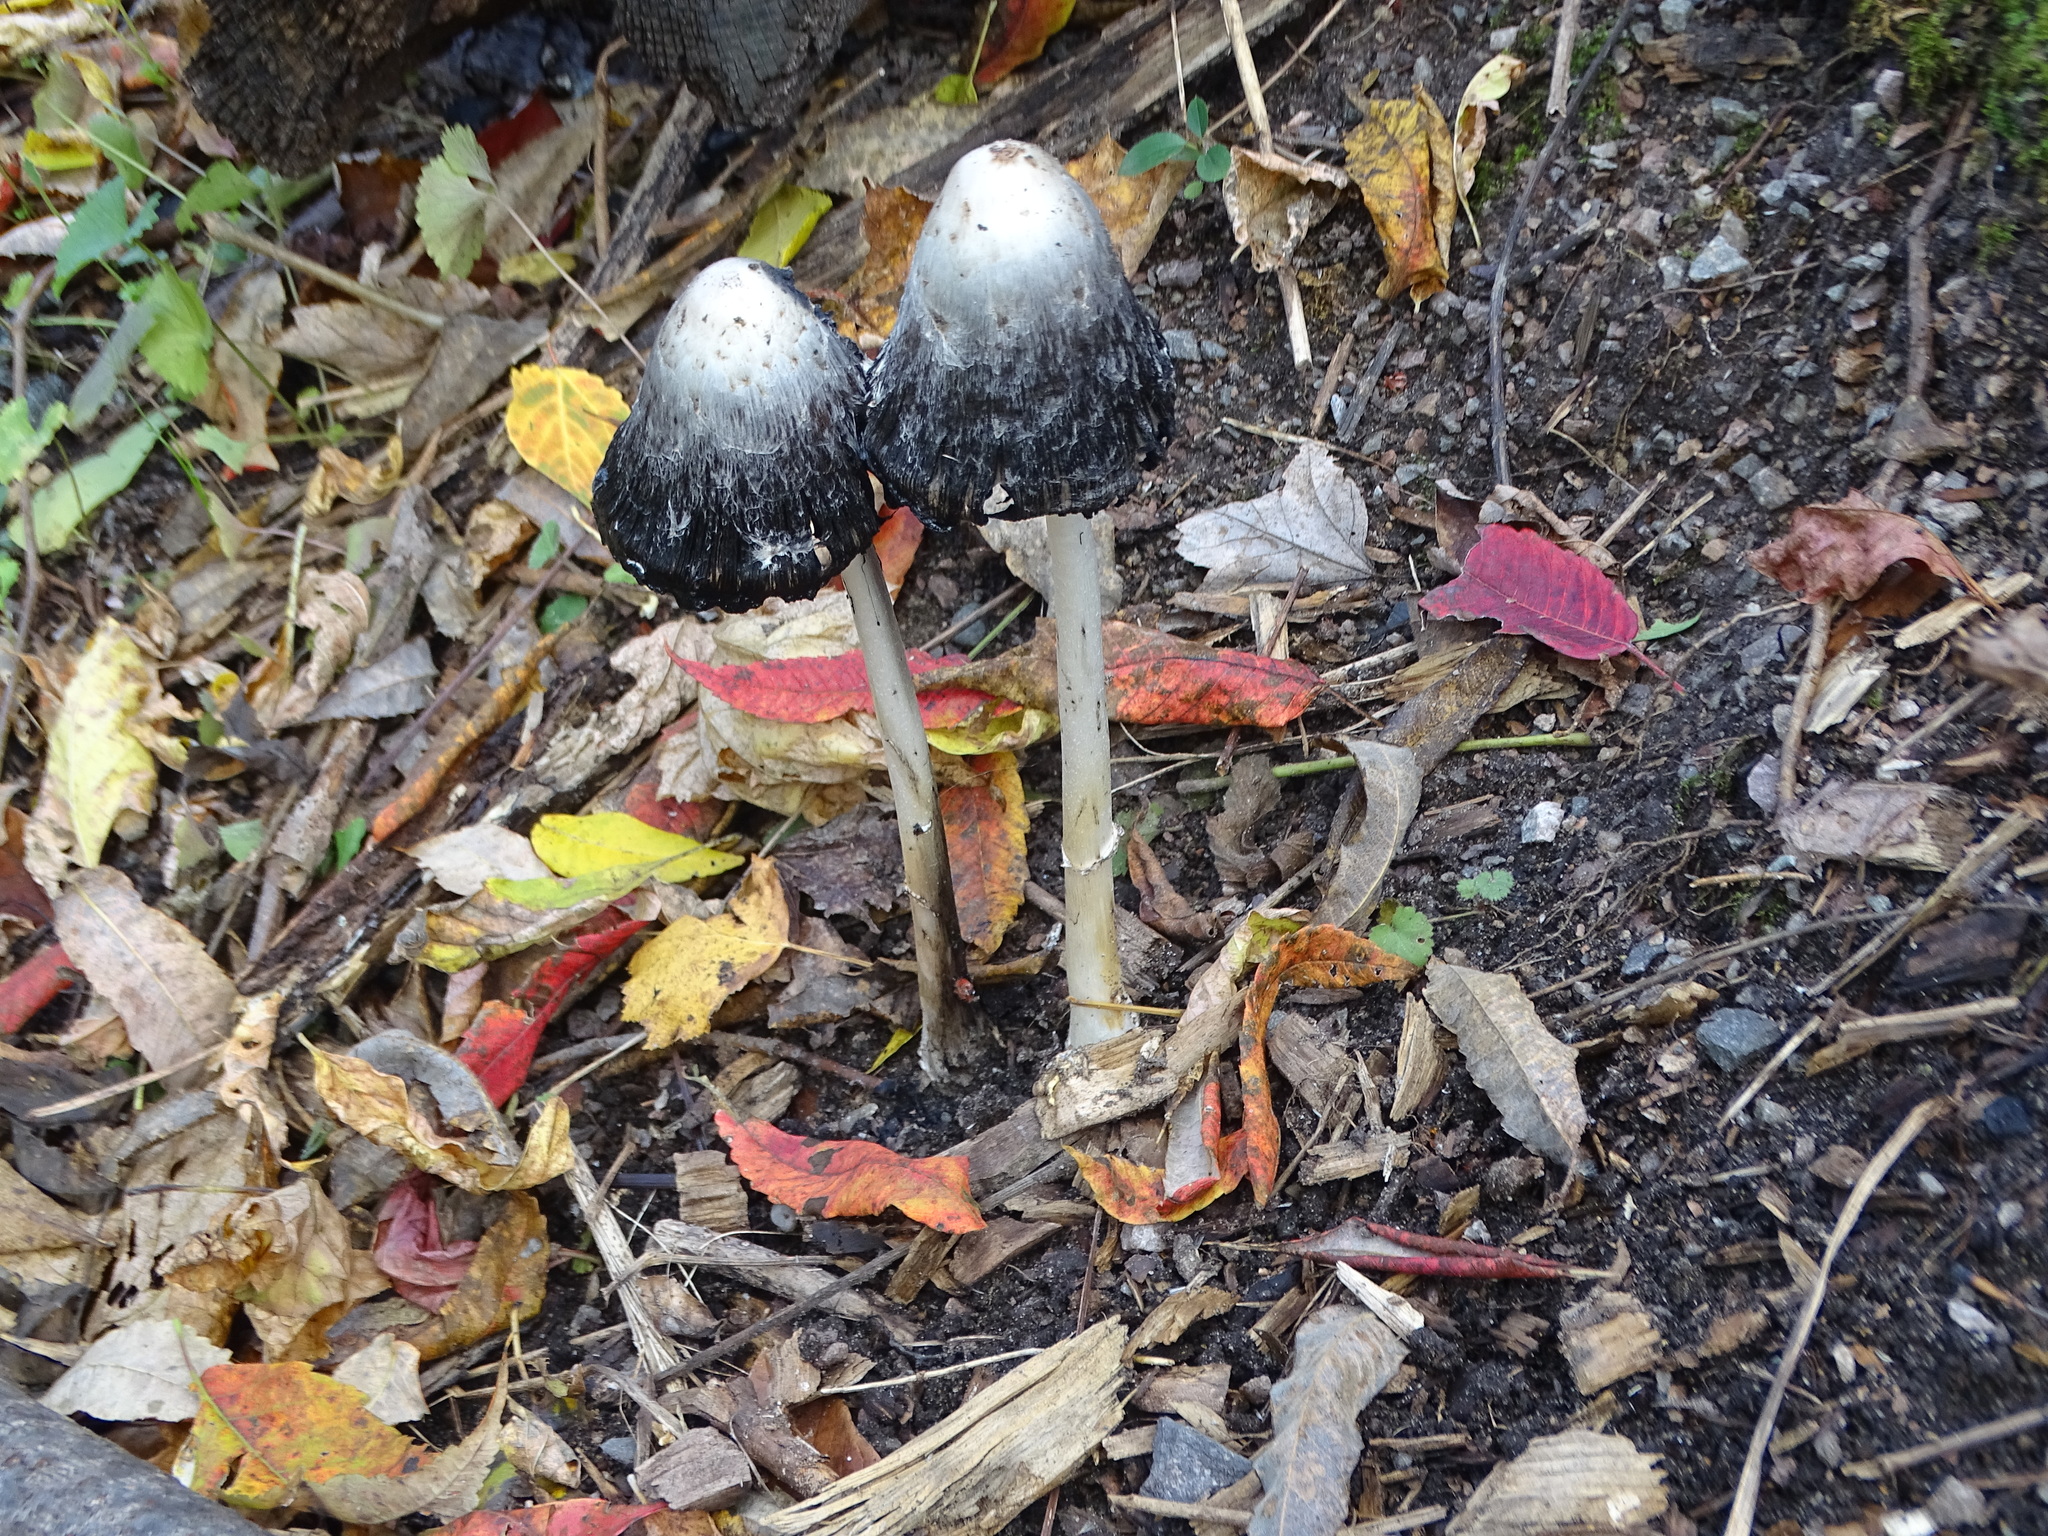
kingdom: Fungi
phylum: Basidiomycota
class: Agaricomycetes
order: Agaricales
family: Agaricaceae
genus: Coprinus
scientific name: Coprinus comatus
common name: Lawyer's wig
